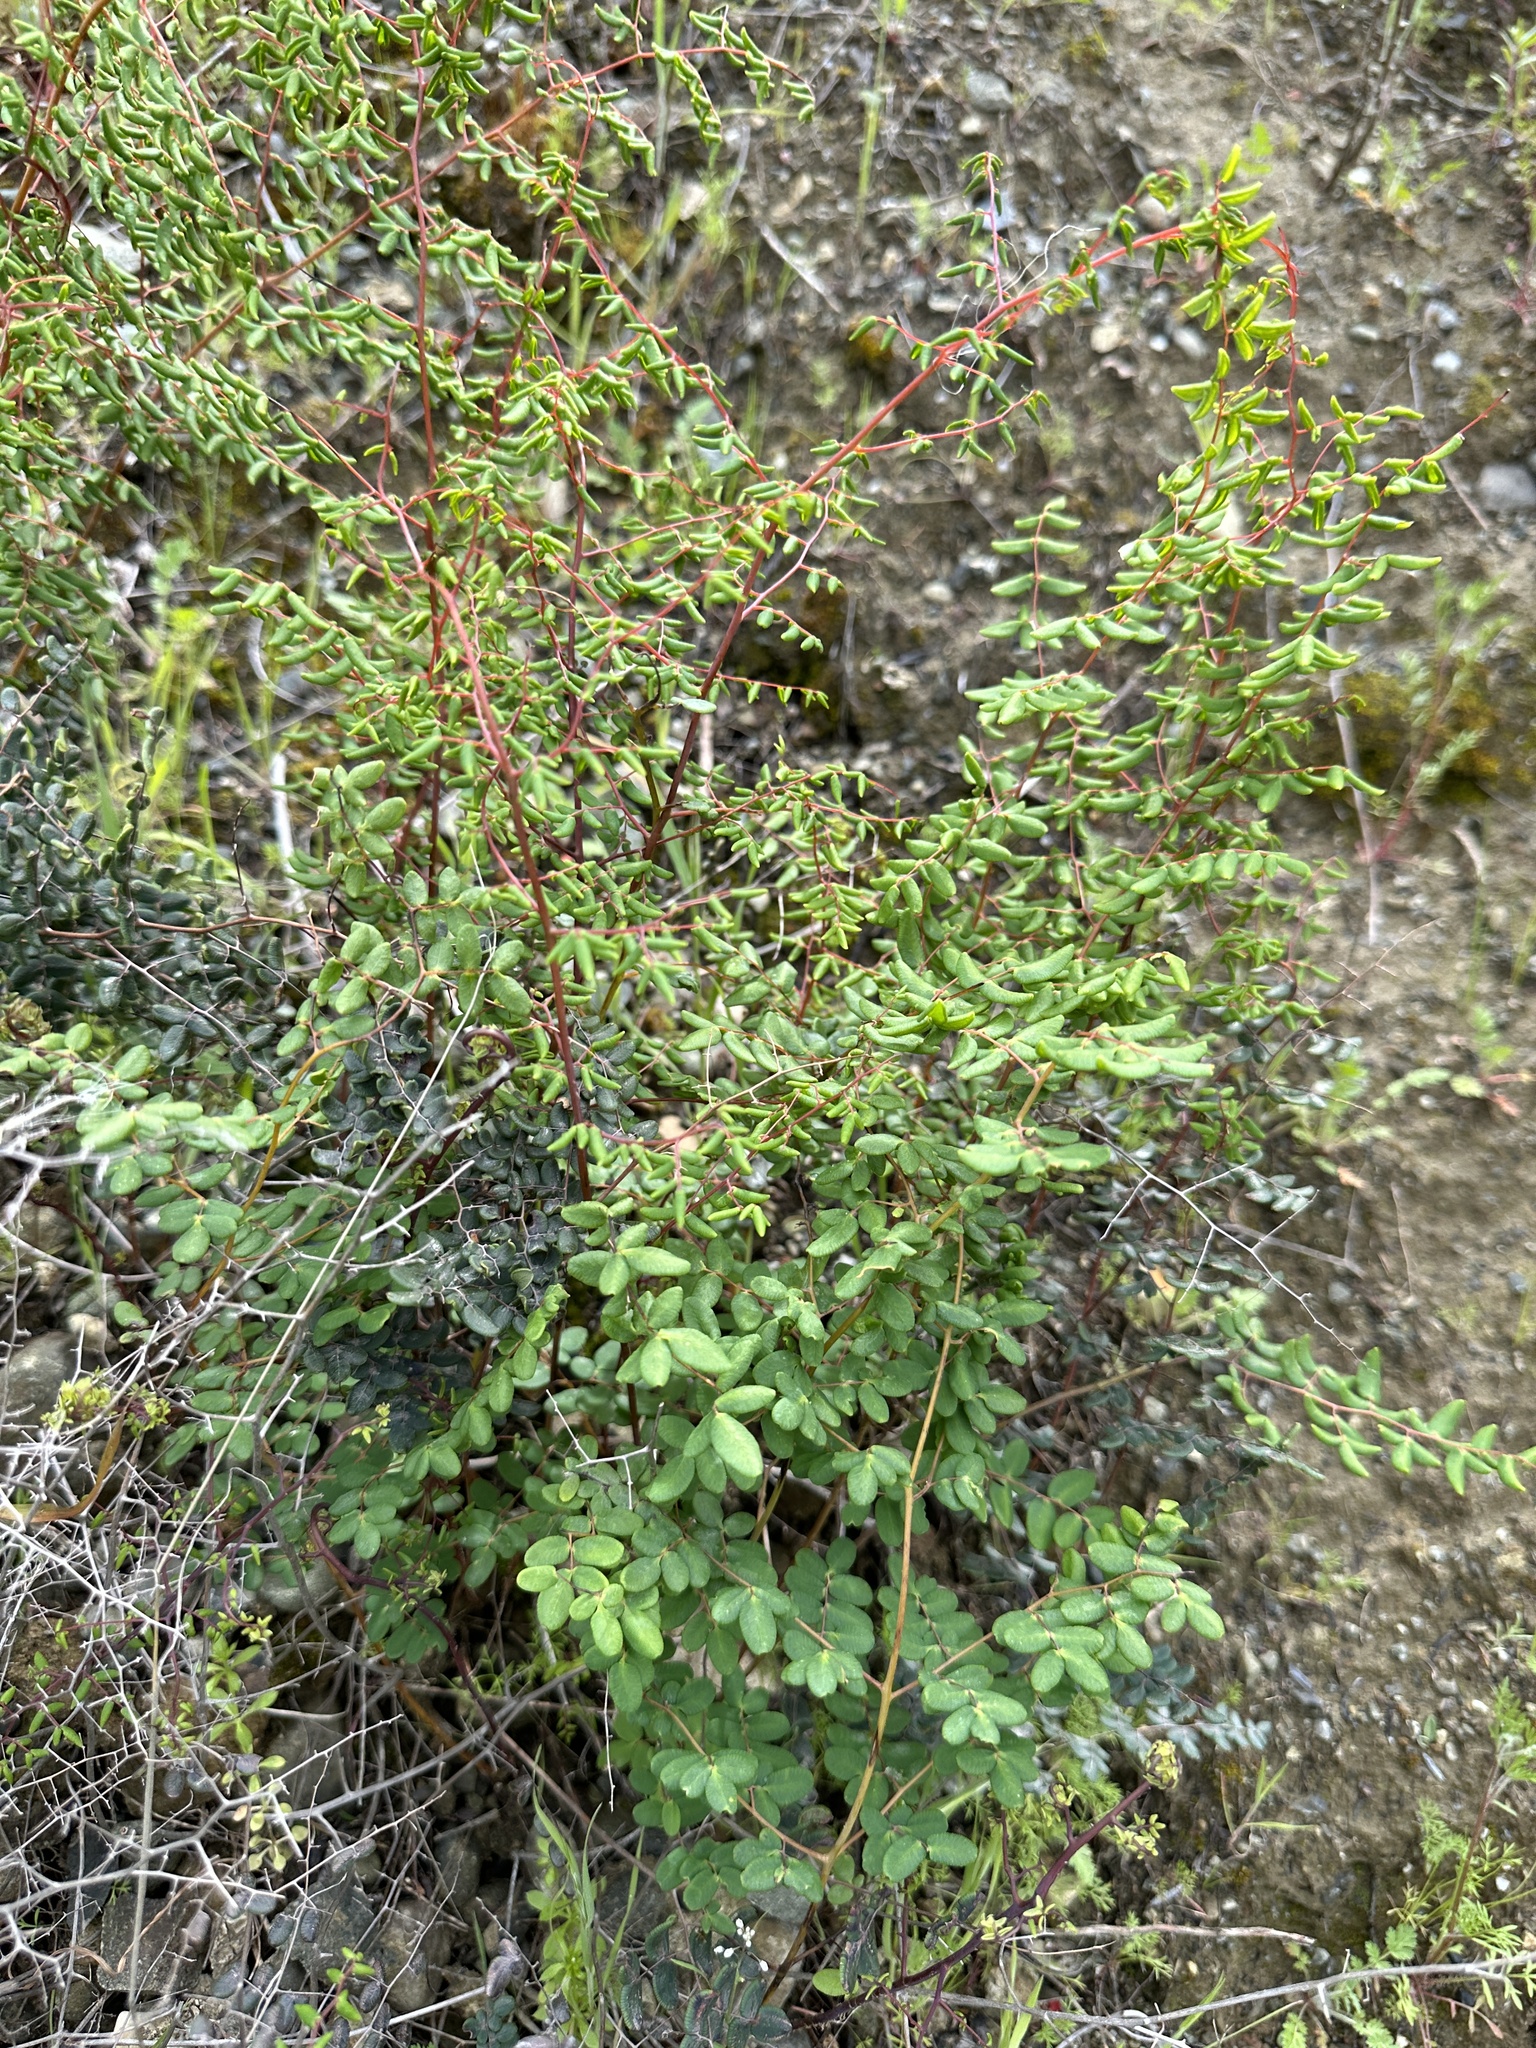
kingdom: Plantae
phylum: Tracheophyta
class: Polypodiopsida
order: Polypodiales
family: Pteridaceae
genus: Pellaea
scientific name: Pellaea andromedifolia
